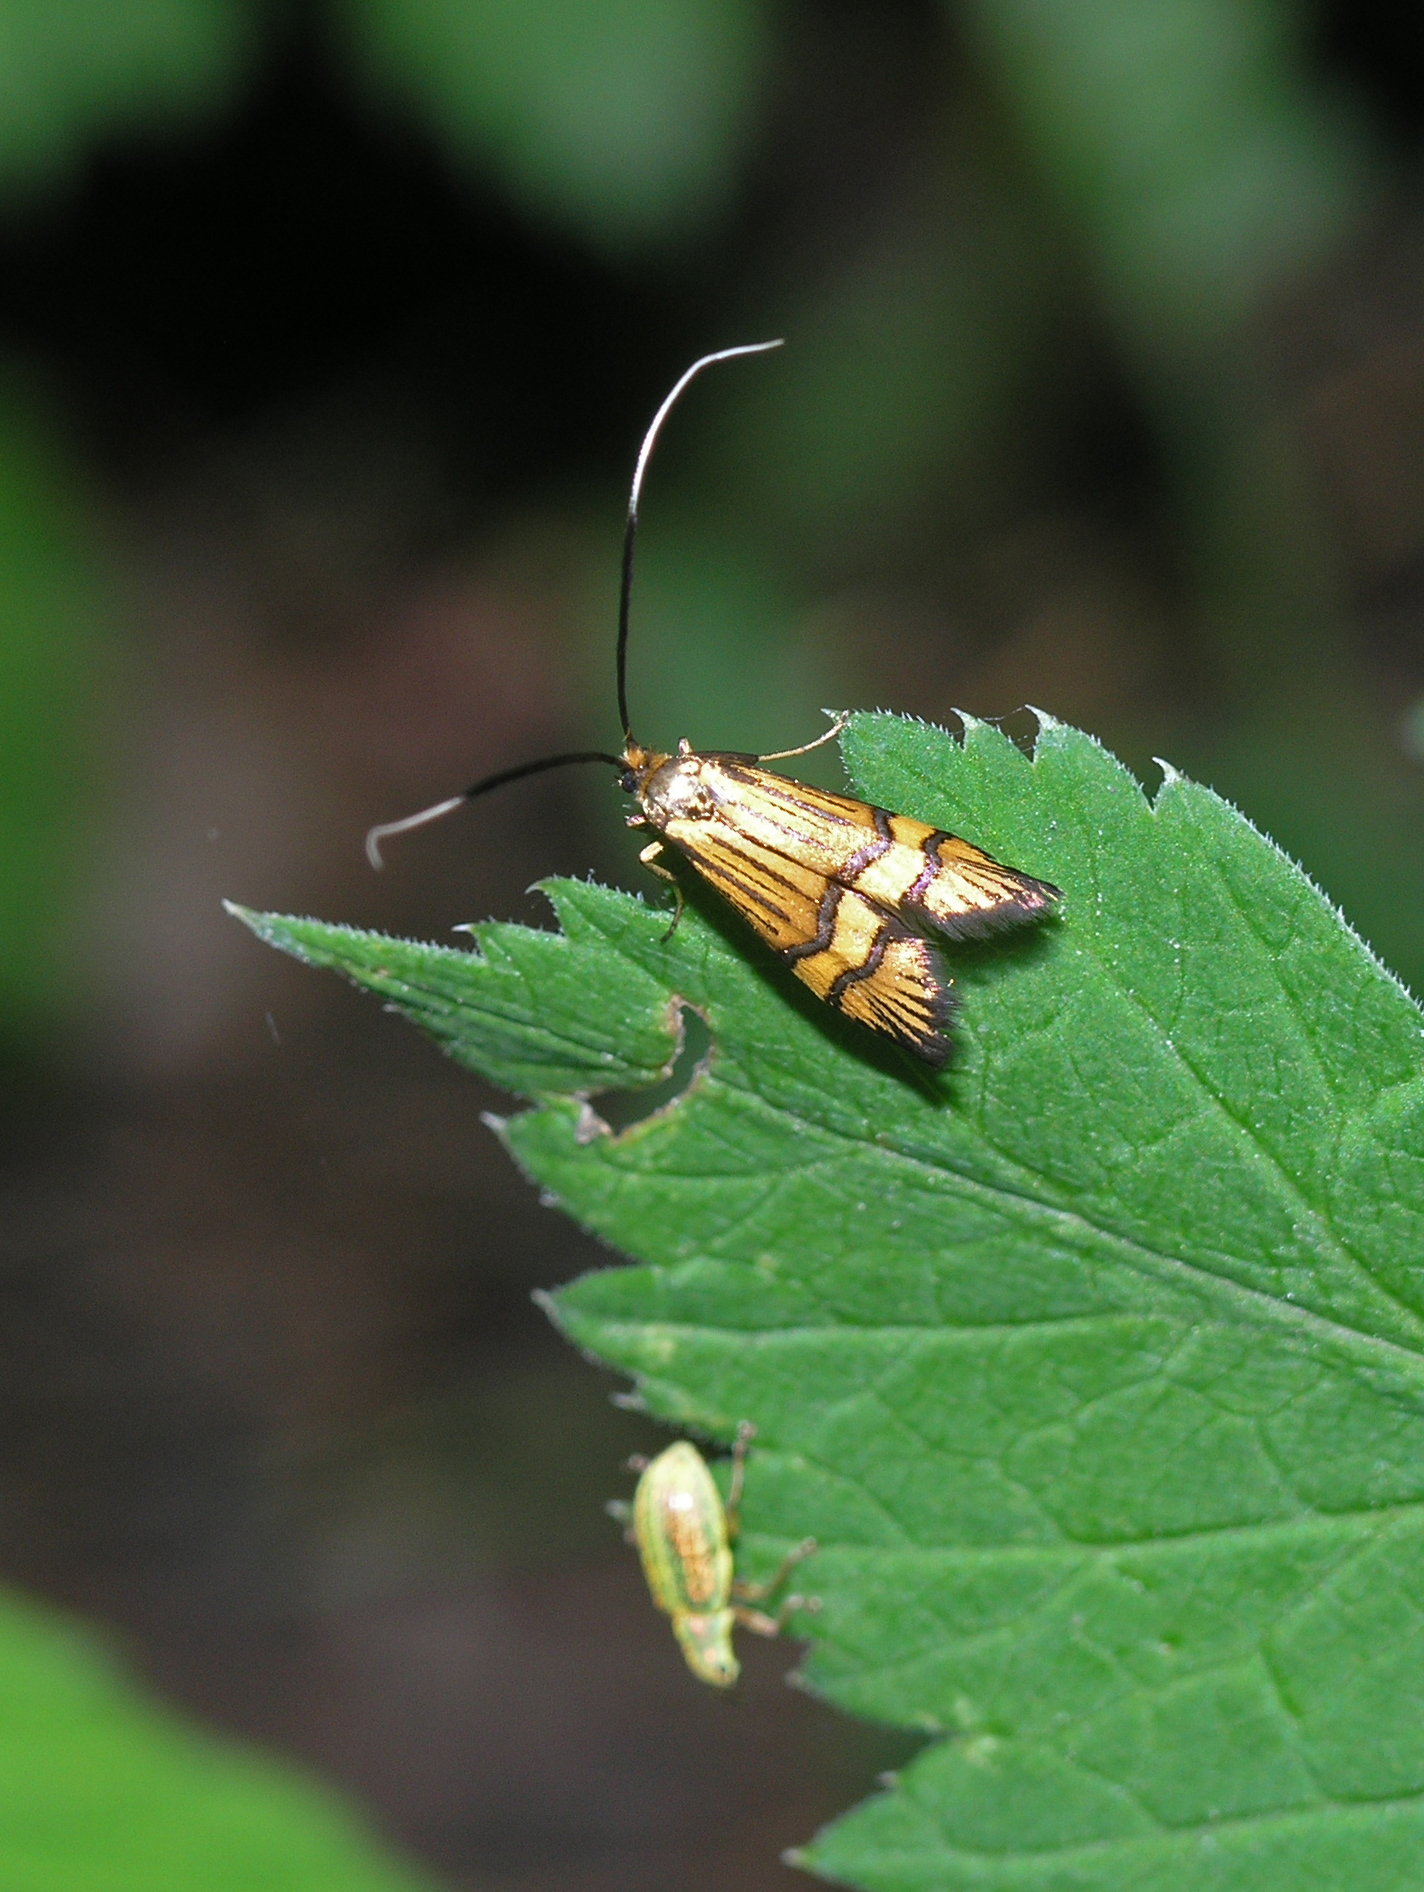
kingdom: Animalia
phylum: Arthropoda
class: Insecta
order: Lepidoptera
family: Adelidae
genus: Nemophora
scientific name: Nemophora amatella
